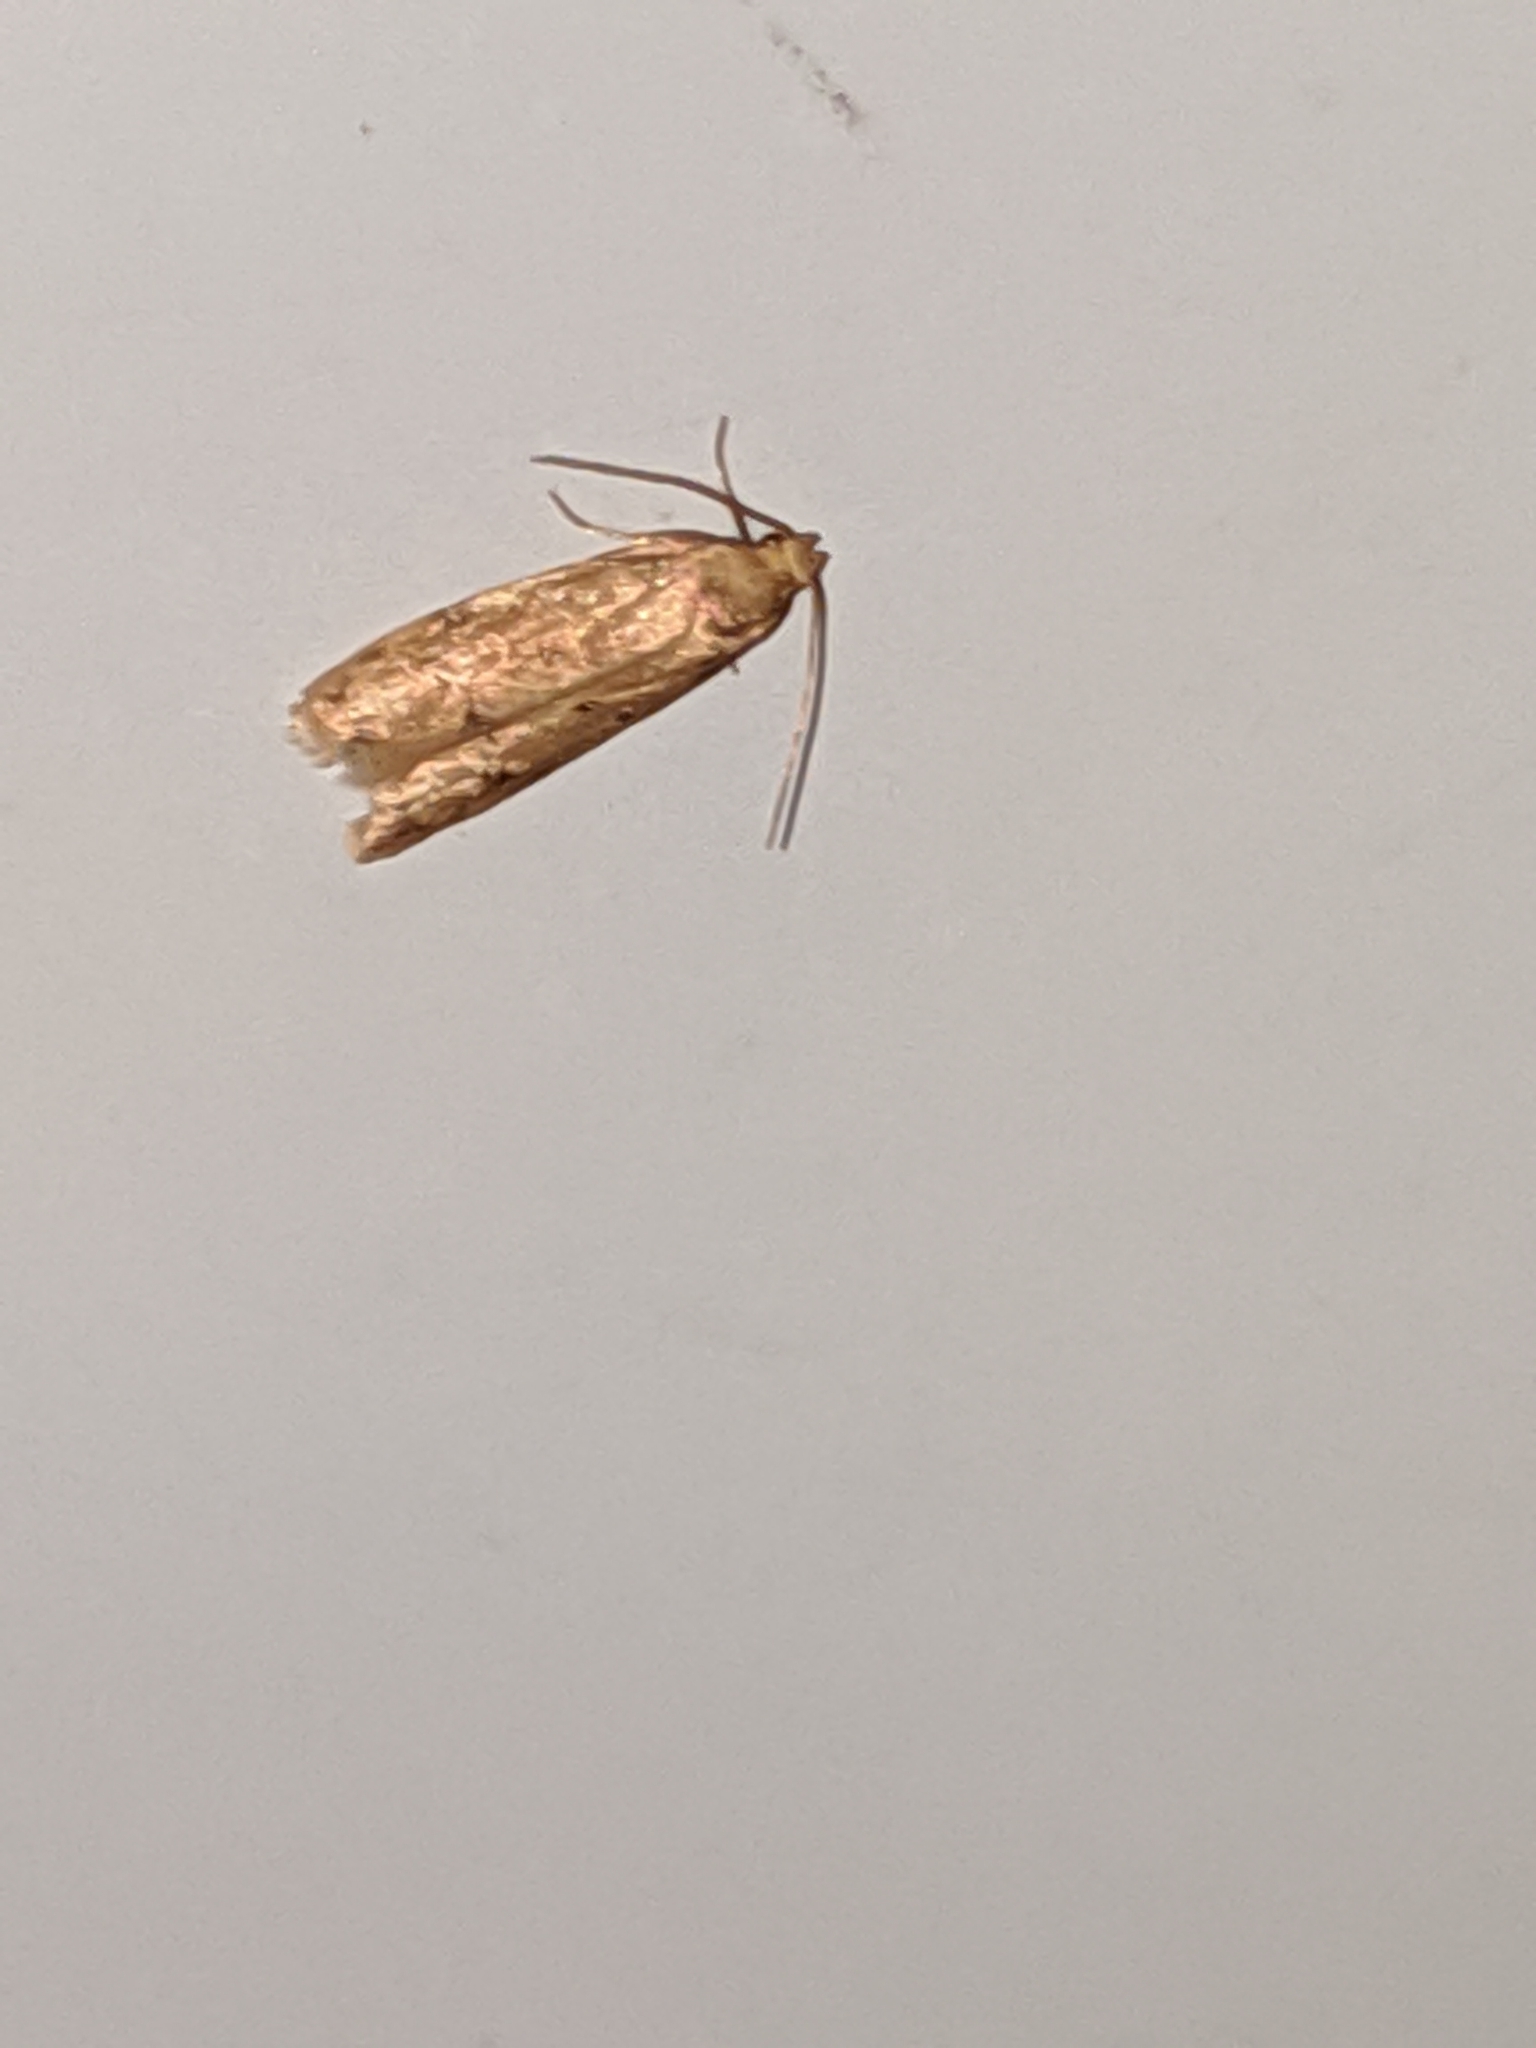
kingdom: Animalia
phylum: Arthropoda
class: Insecta
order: Lepidoptera
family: Autostichidae
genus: Gerdana
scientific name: Gerdana caritella
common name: Gerdana moth
